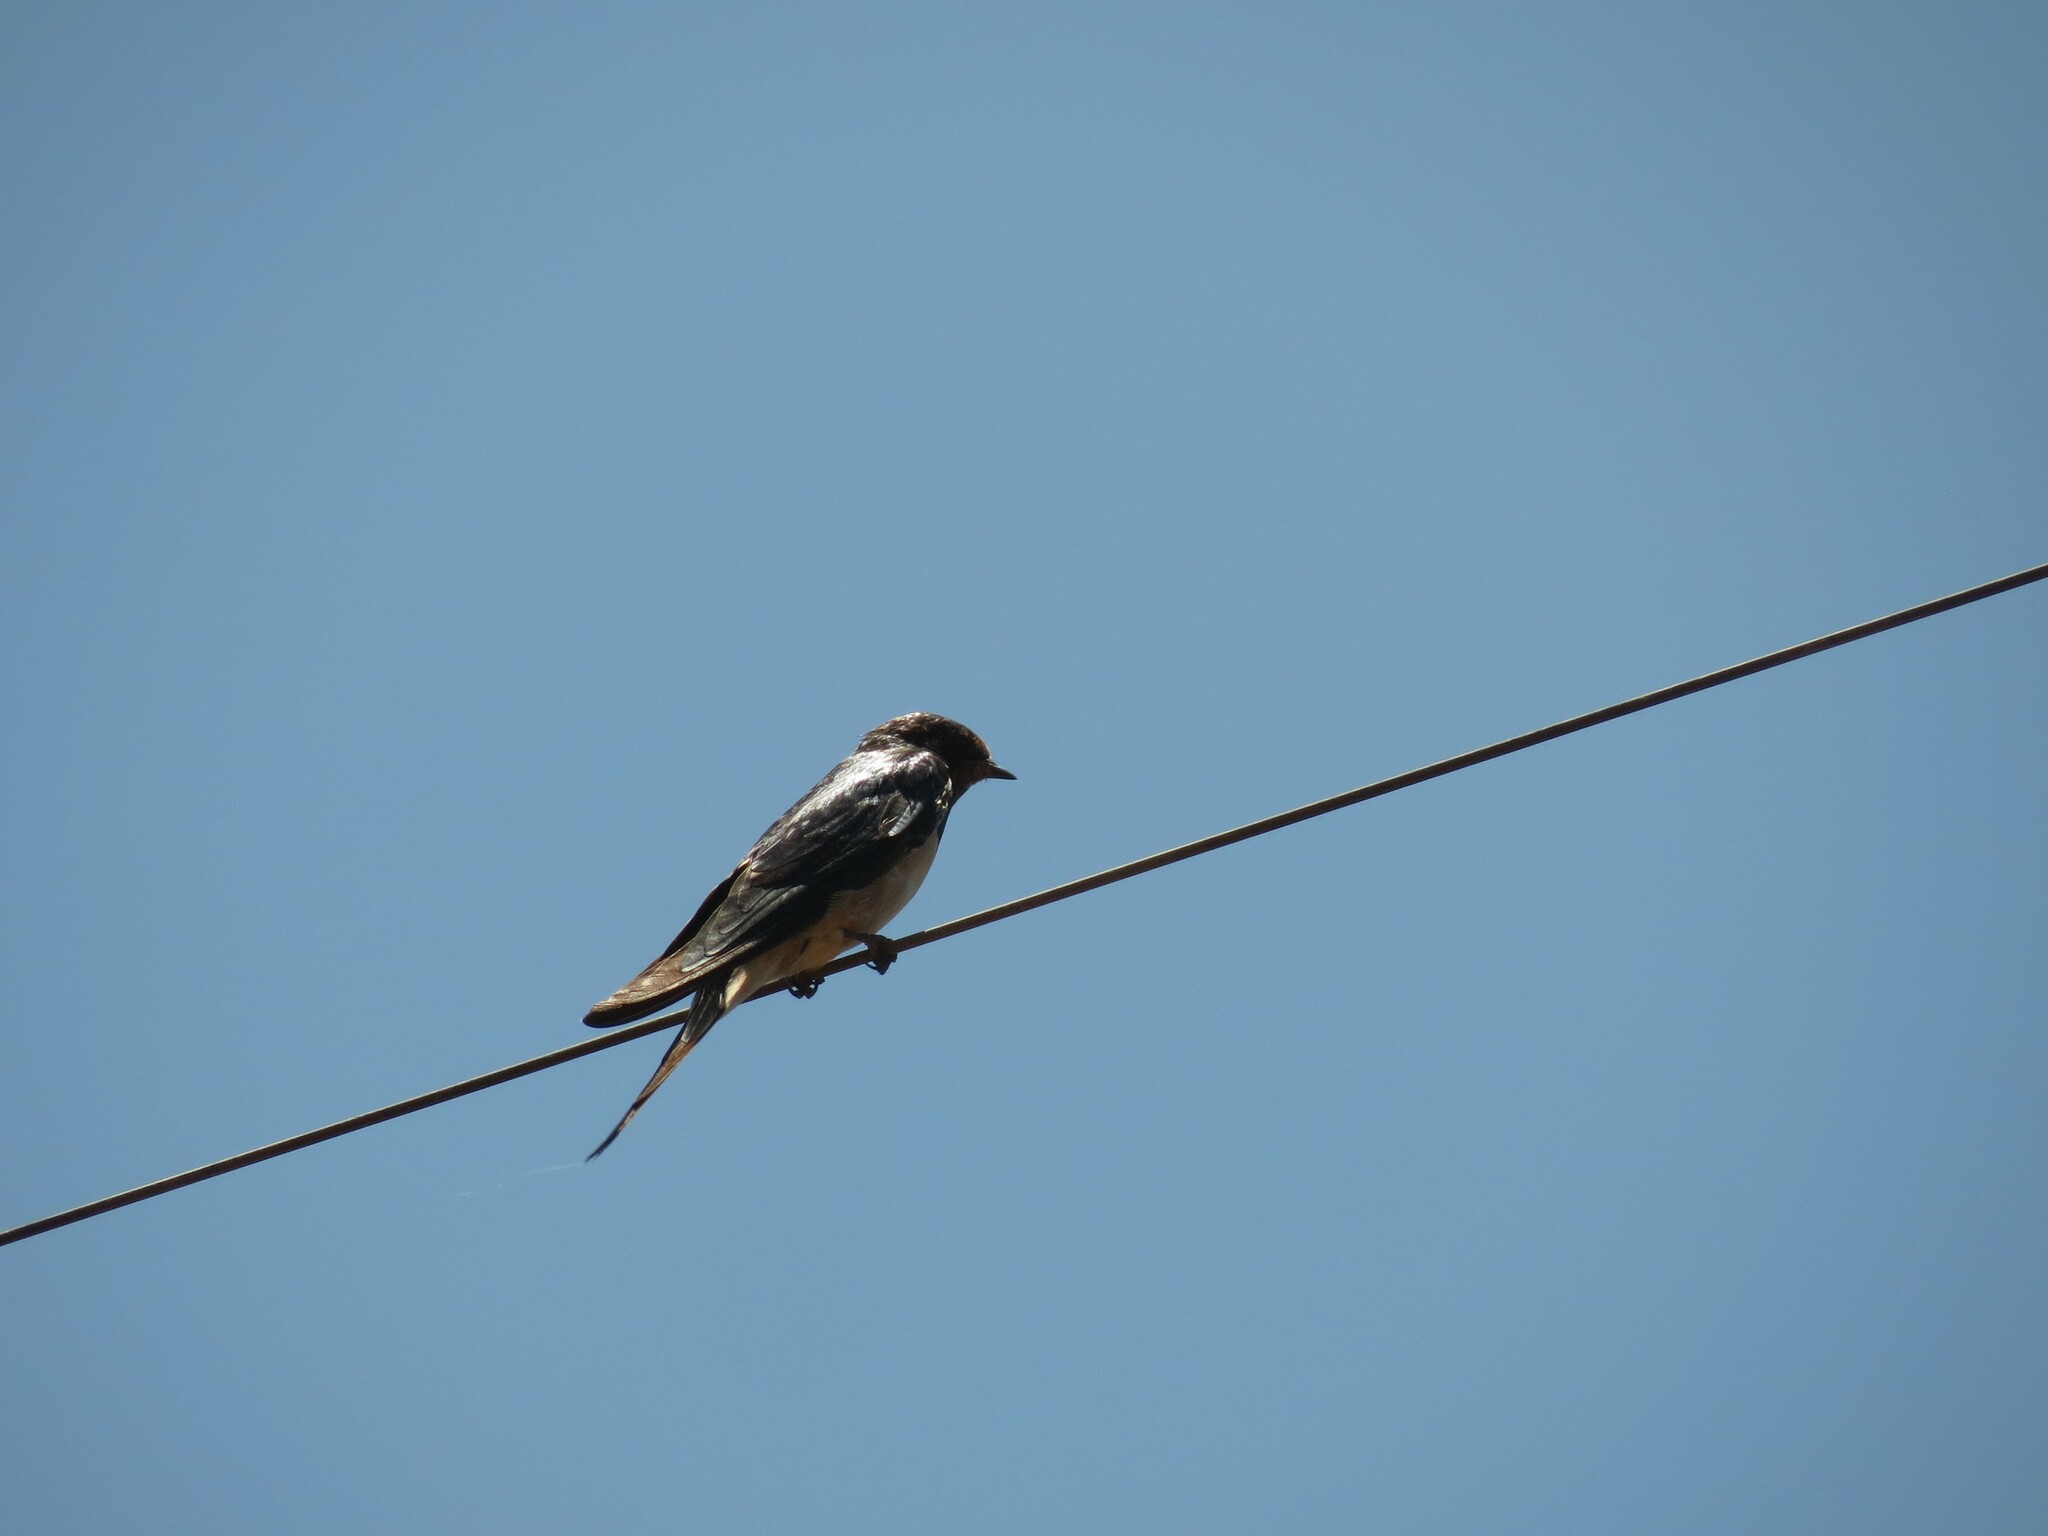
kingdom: Animalia
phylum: Chordata
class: Aves
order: Passeriformes
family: Hirundinidae
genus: Hirundo
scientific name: Hirundo rustica
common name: Barn swallow
